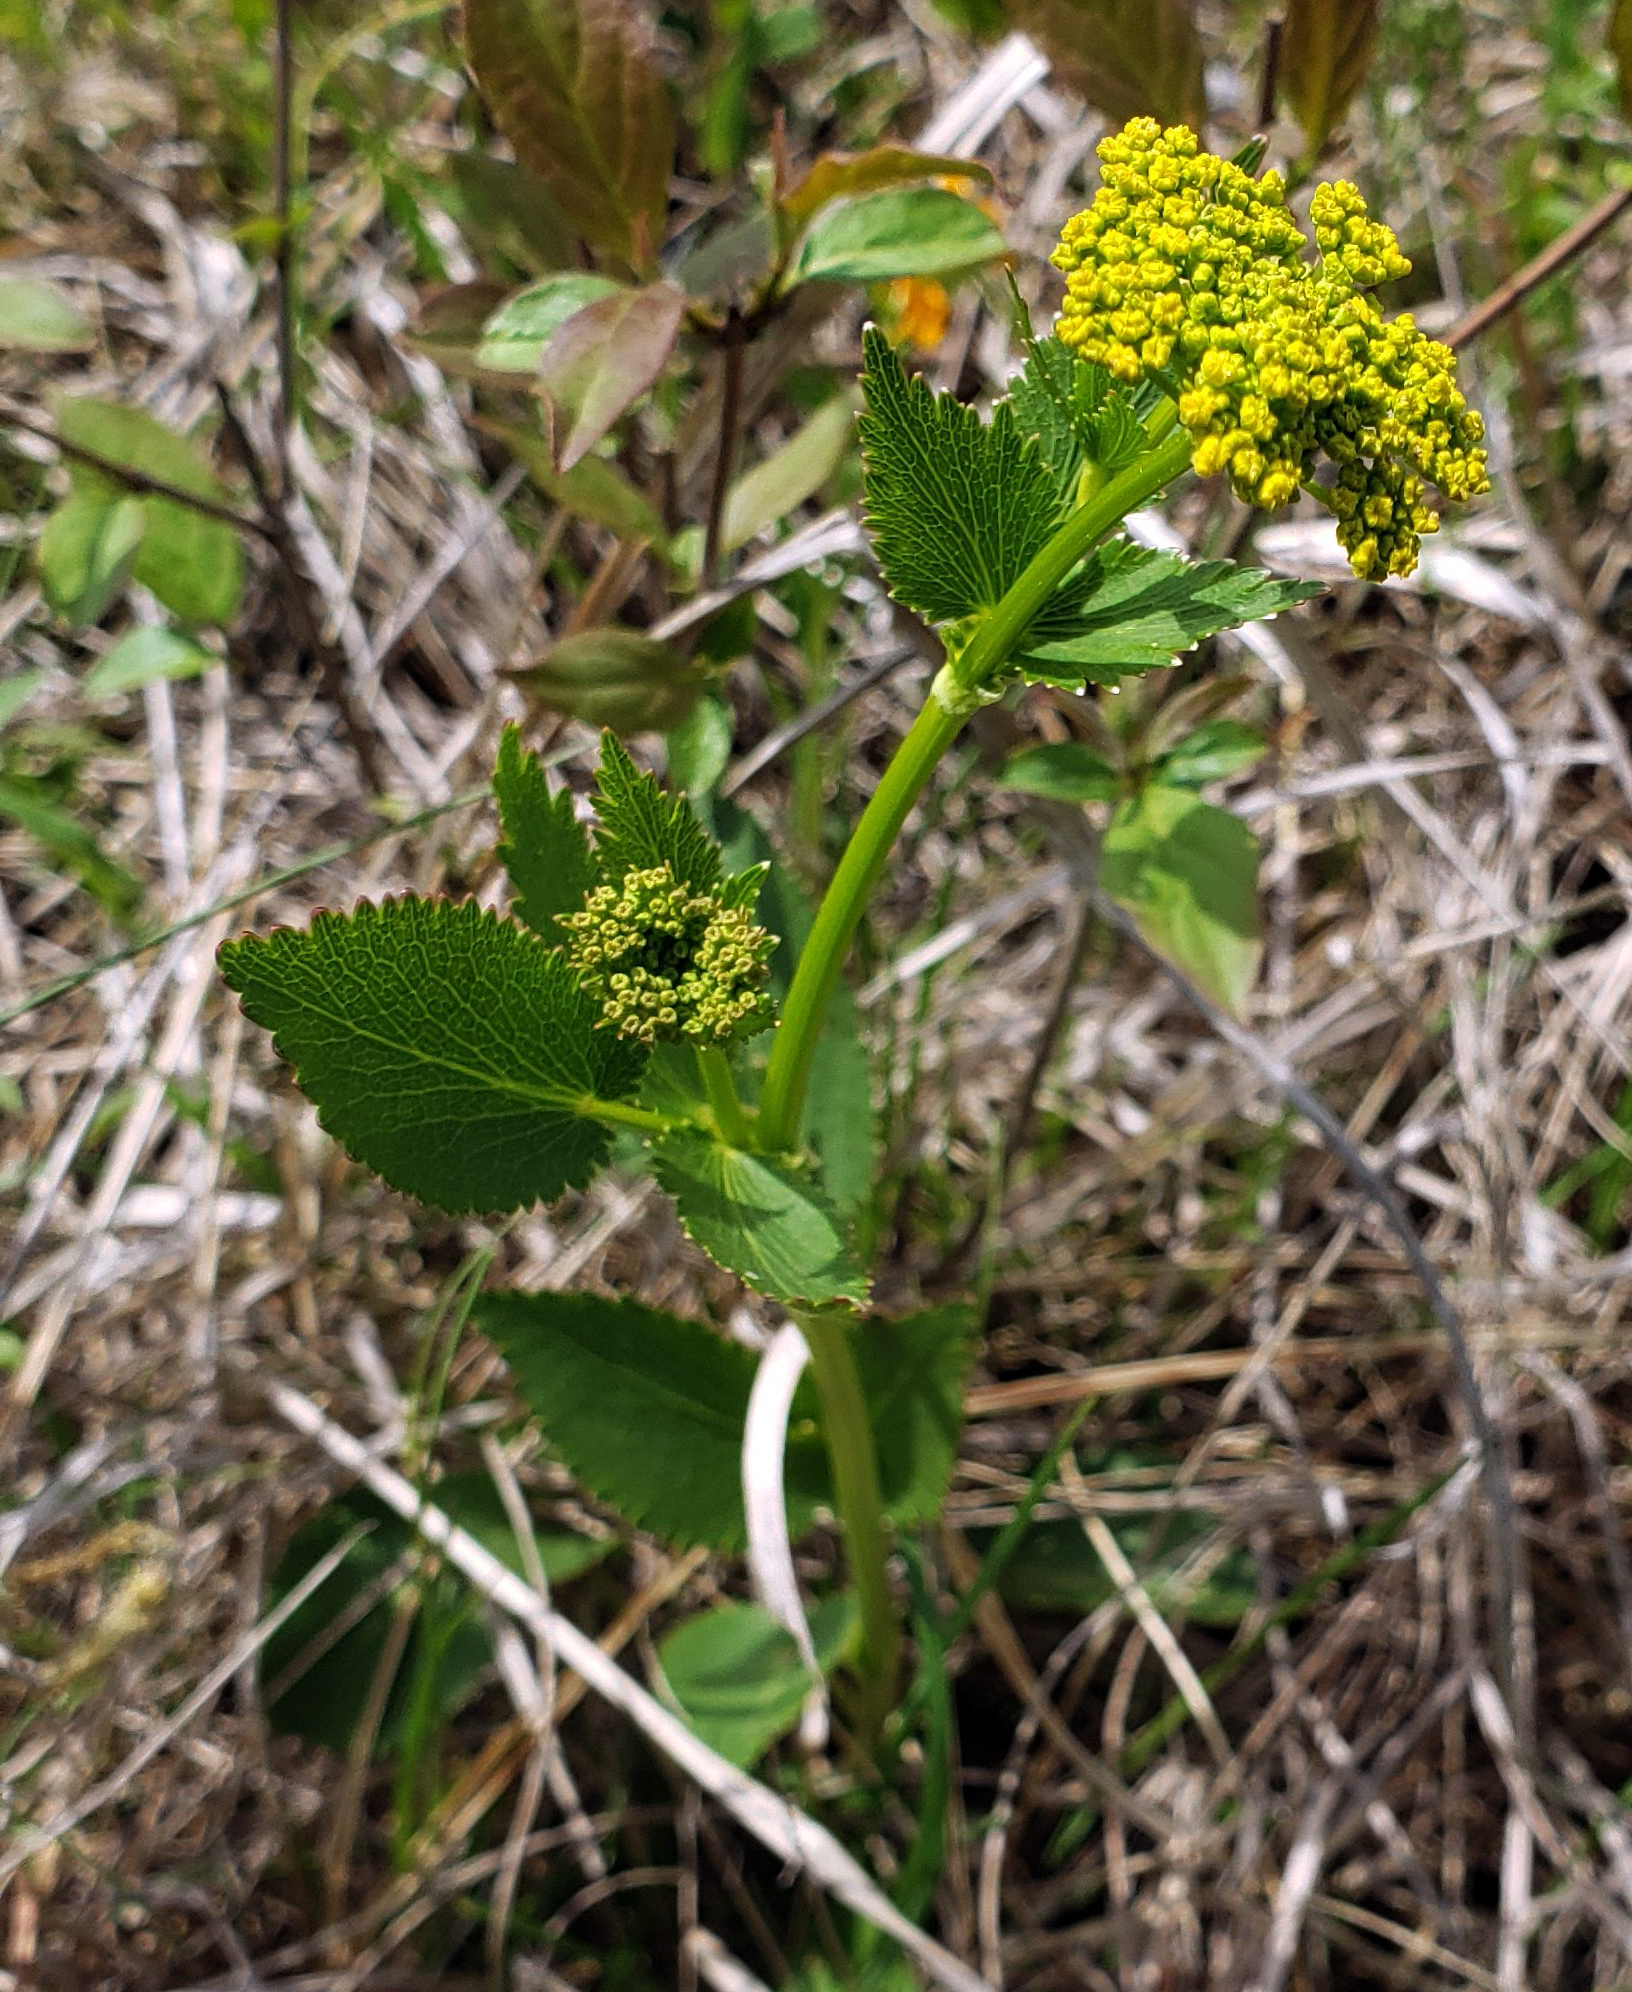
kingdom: Plantae
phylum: Tracheophyta
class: Magnoliopsida
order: Apiales
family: Apiaceae
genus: Zizia
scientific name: Zizia aptera
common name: Heart-leaved alexanders
